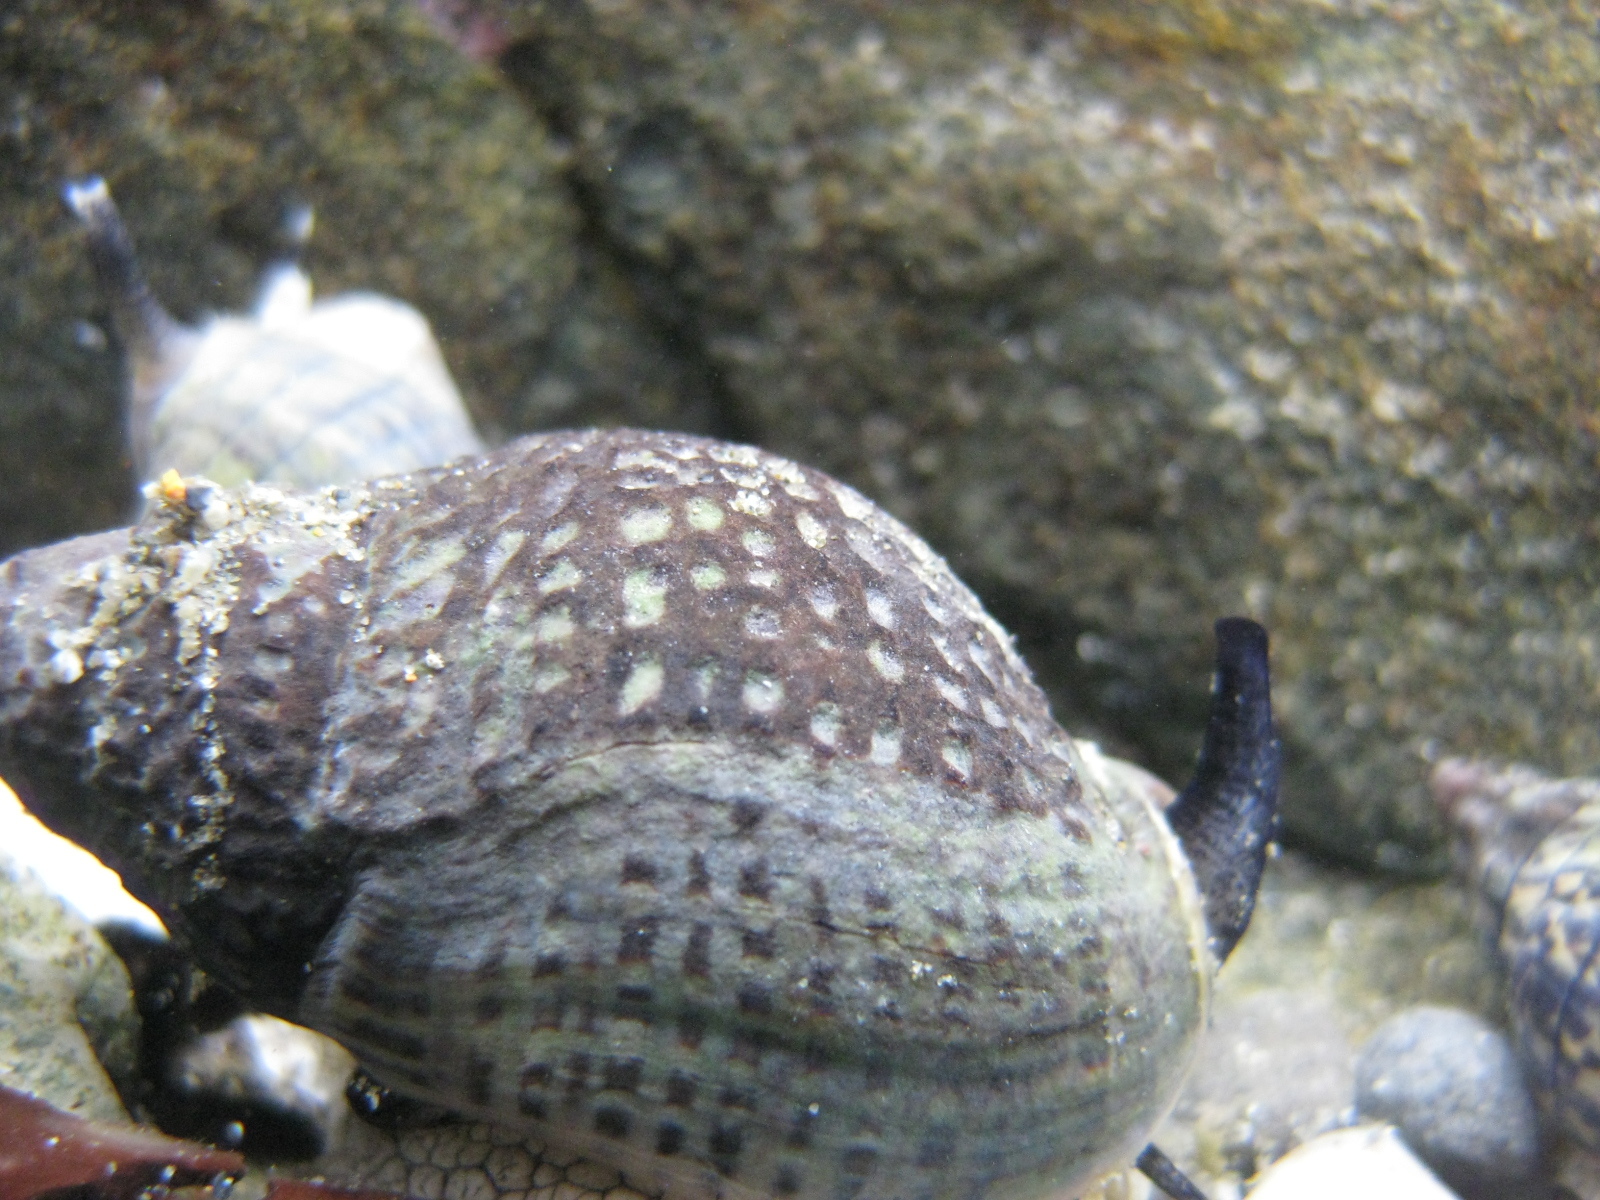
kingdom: Animalia
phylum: Mollusca
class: Gastropoda
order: Neogastropoda
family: Cominellidae
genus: Cominella
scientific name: Cominella maculosa
